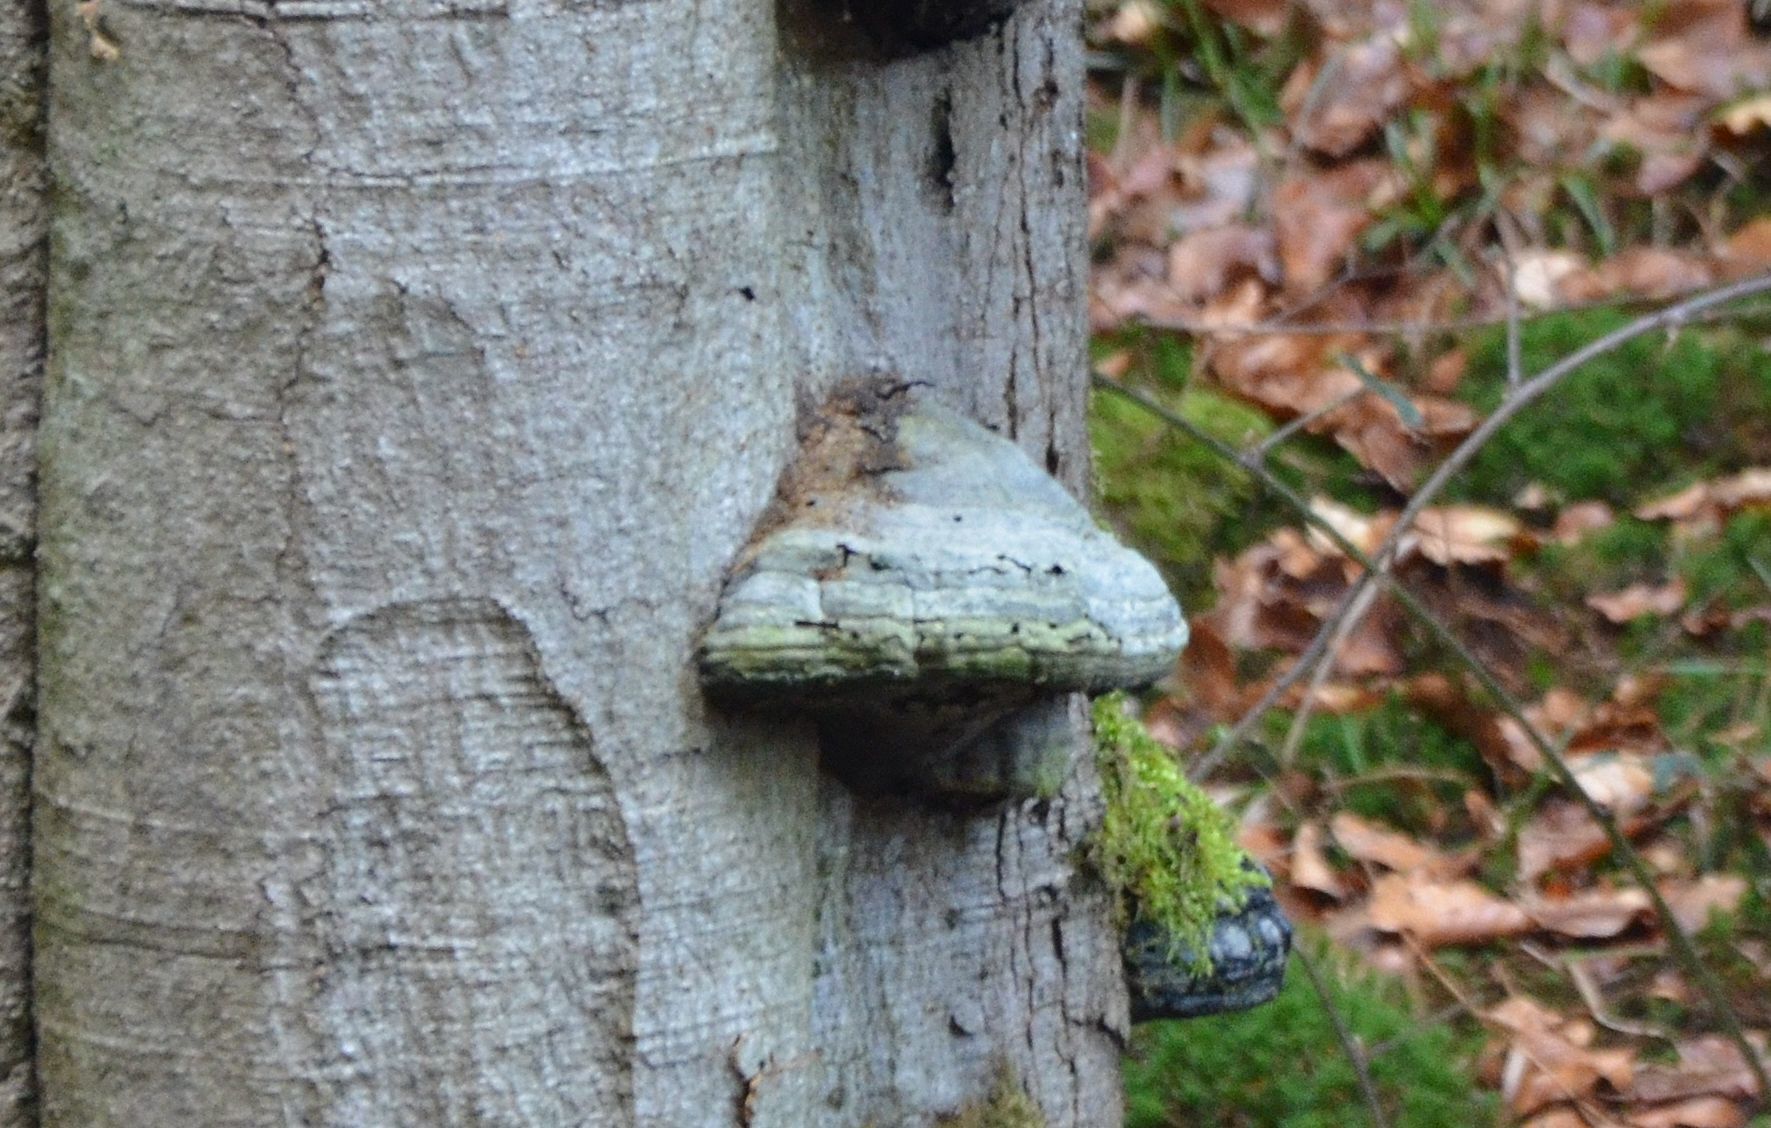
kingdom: Fungi
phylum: Basidiomycota
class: Agaricomycetes
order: Polyporales
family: Polyporaceae
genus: Fomes
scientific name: Fomes fomentarius
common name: Hoof fungus
